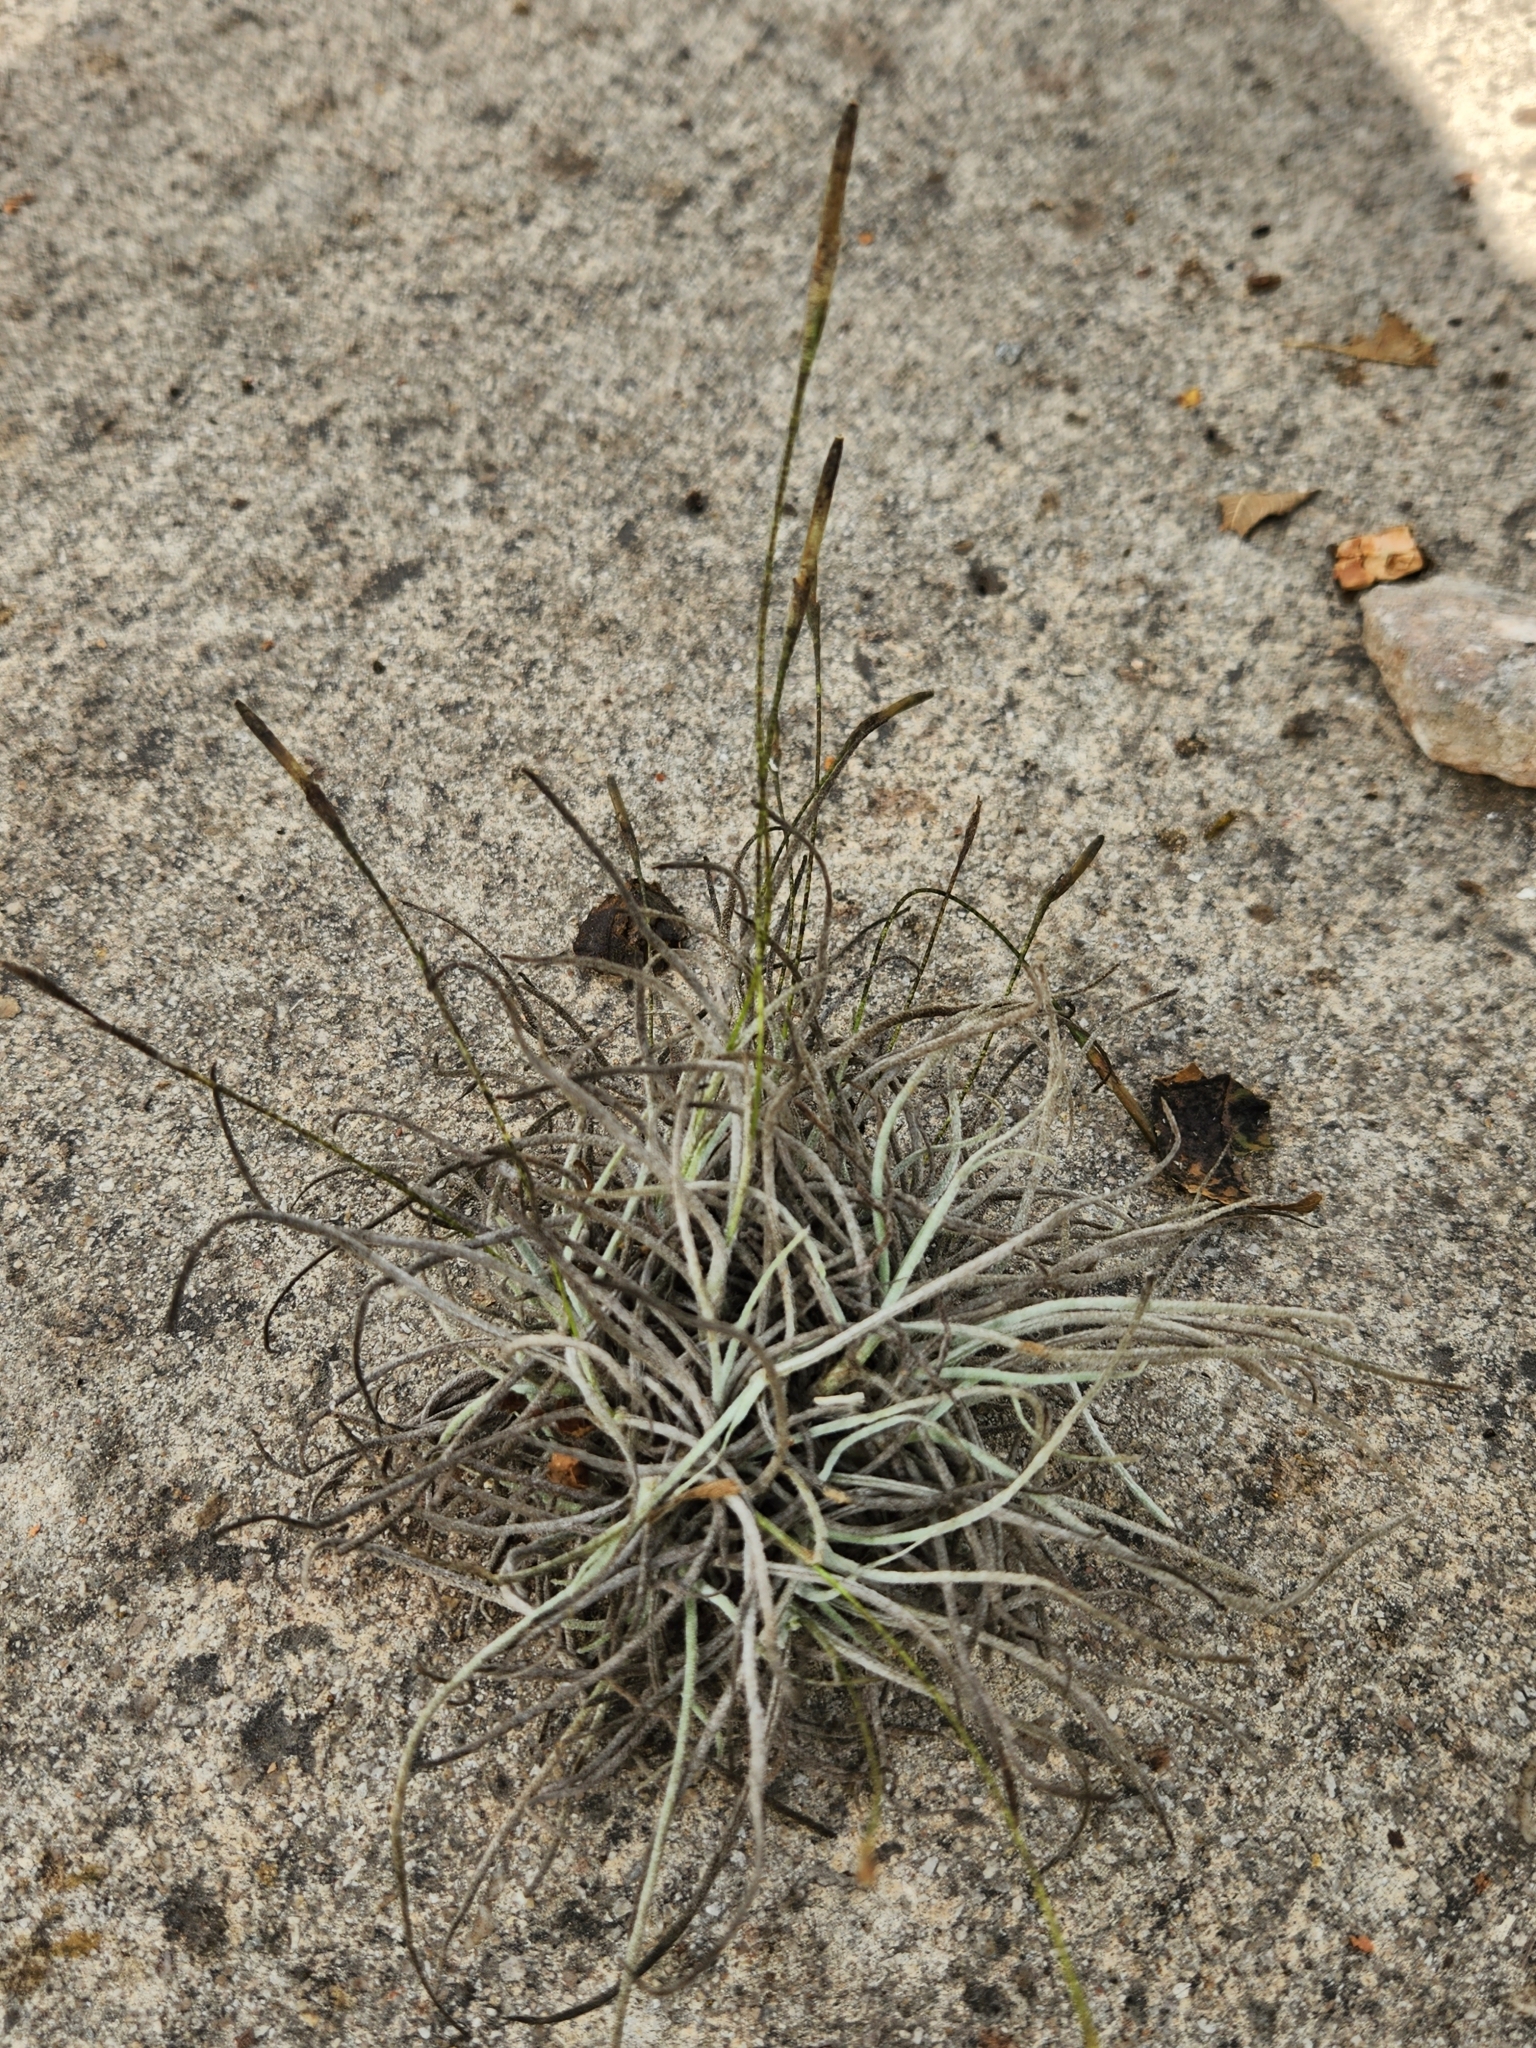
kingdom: Plantae
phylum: Tracheophyta
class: Liliopsida
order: Poales
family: Bromeliaceae
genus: Tillandsia
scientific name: Tillandsia recurvata
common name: Small ballmoss
